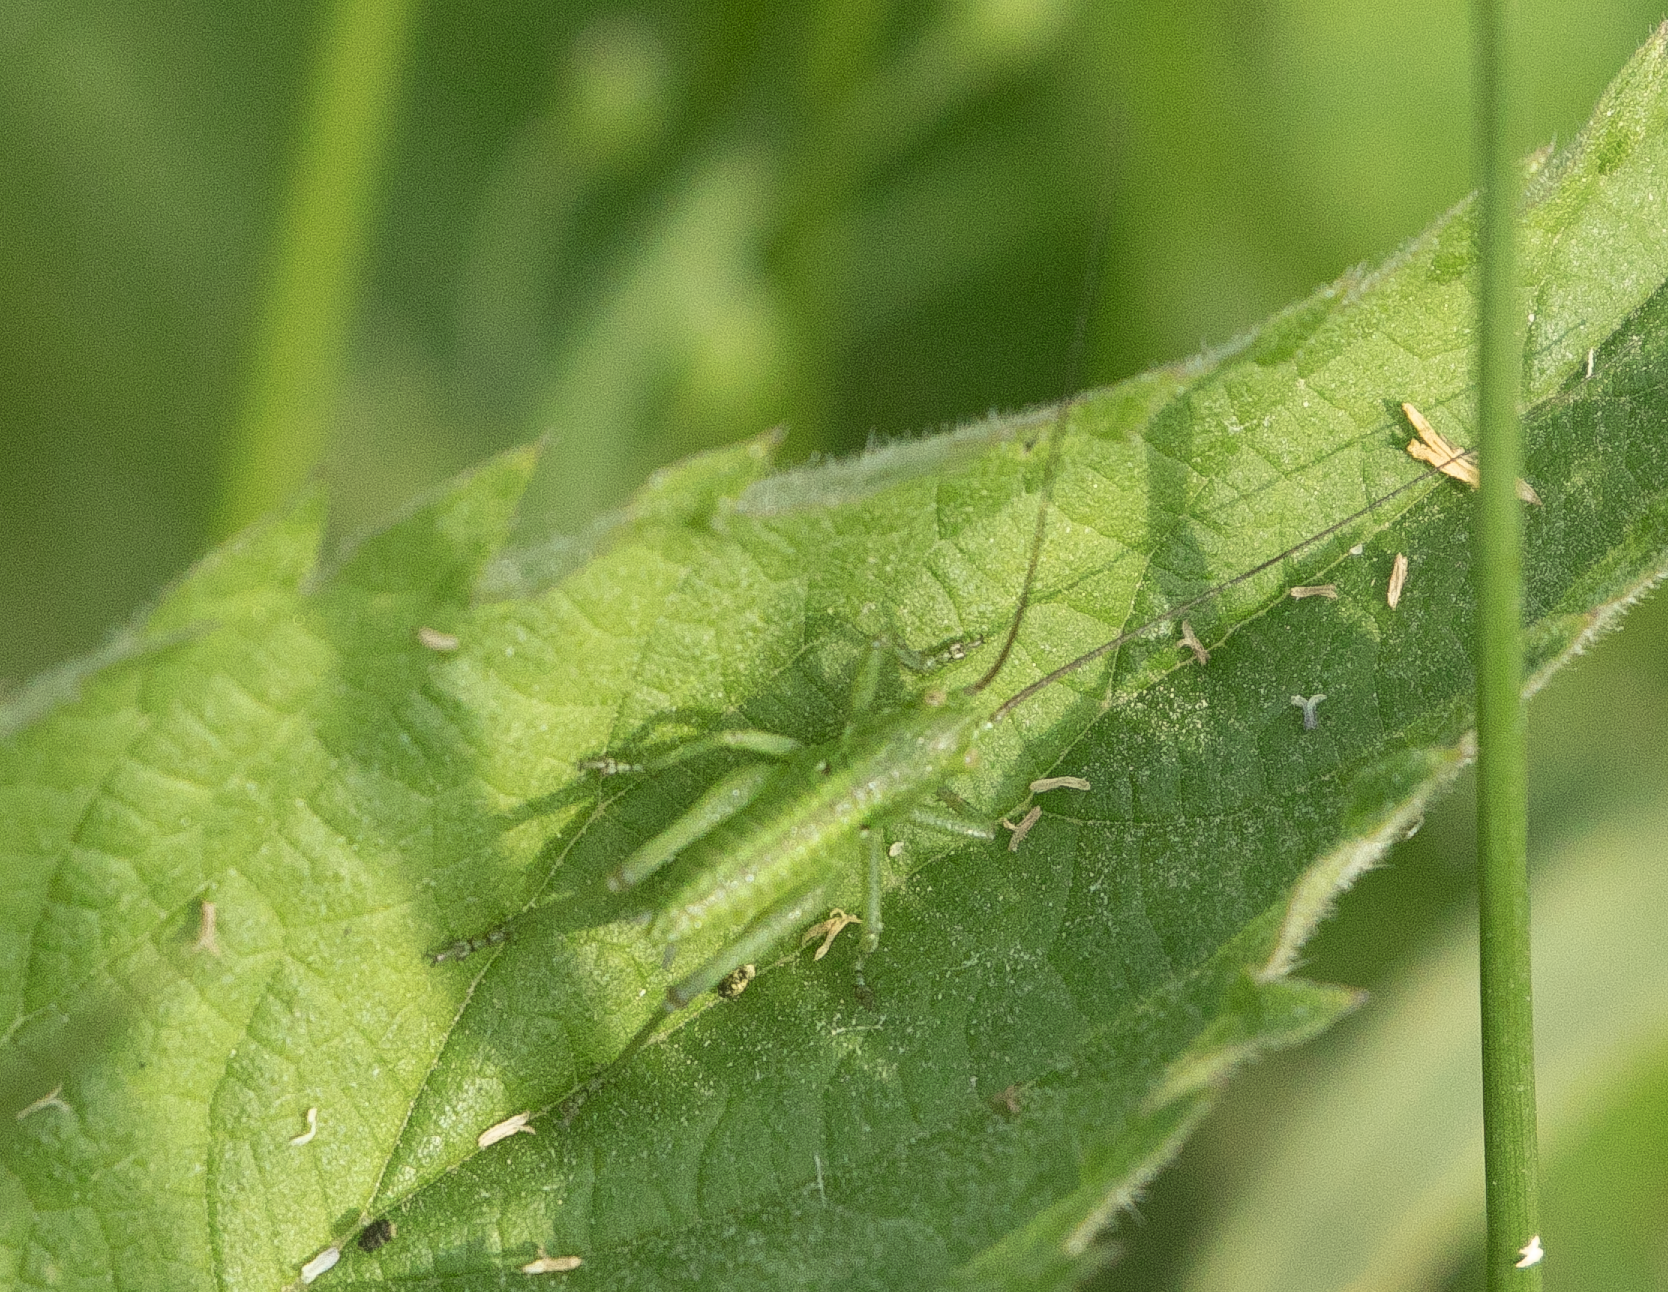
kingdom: Animalia
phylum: Arthropoda
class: Insecta
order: Orthoptera
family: Tettigoniidae
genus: Tettigonia
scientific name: Tettigonia viridissima
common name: Great green bush-cricket
